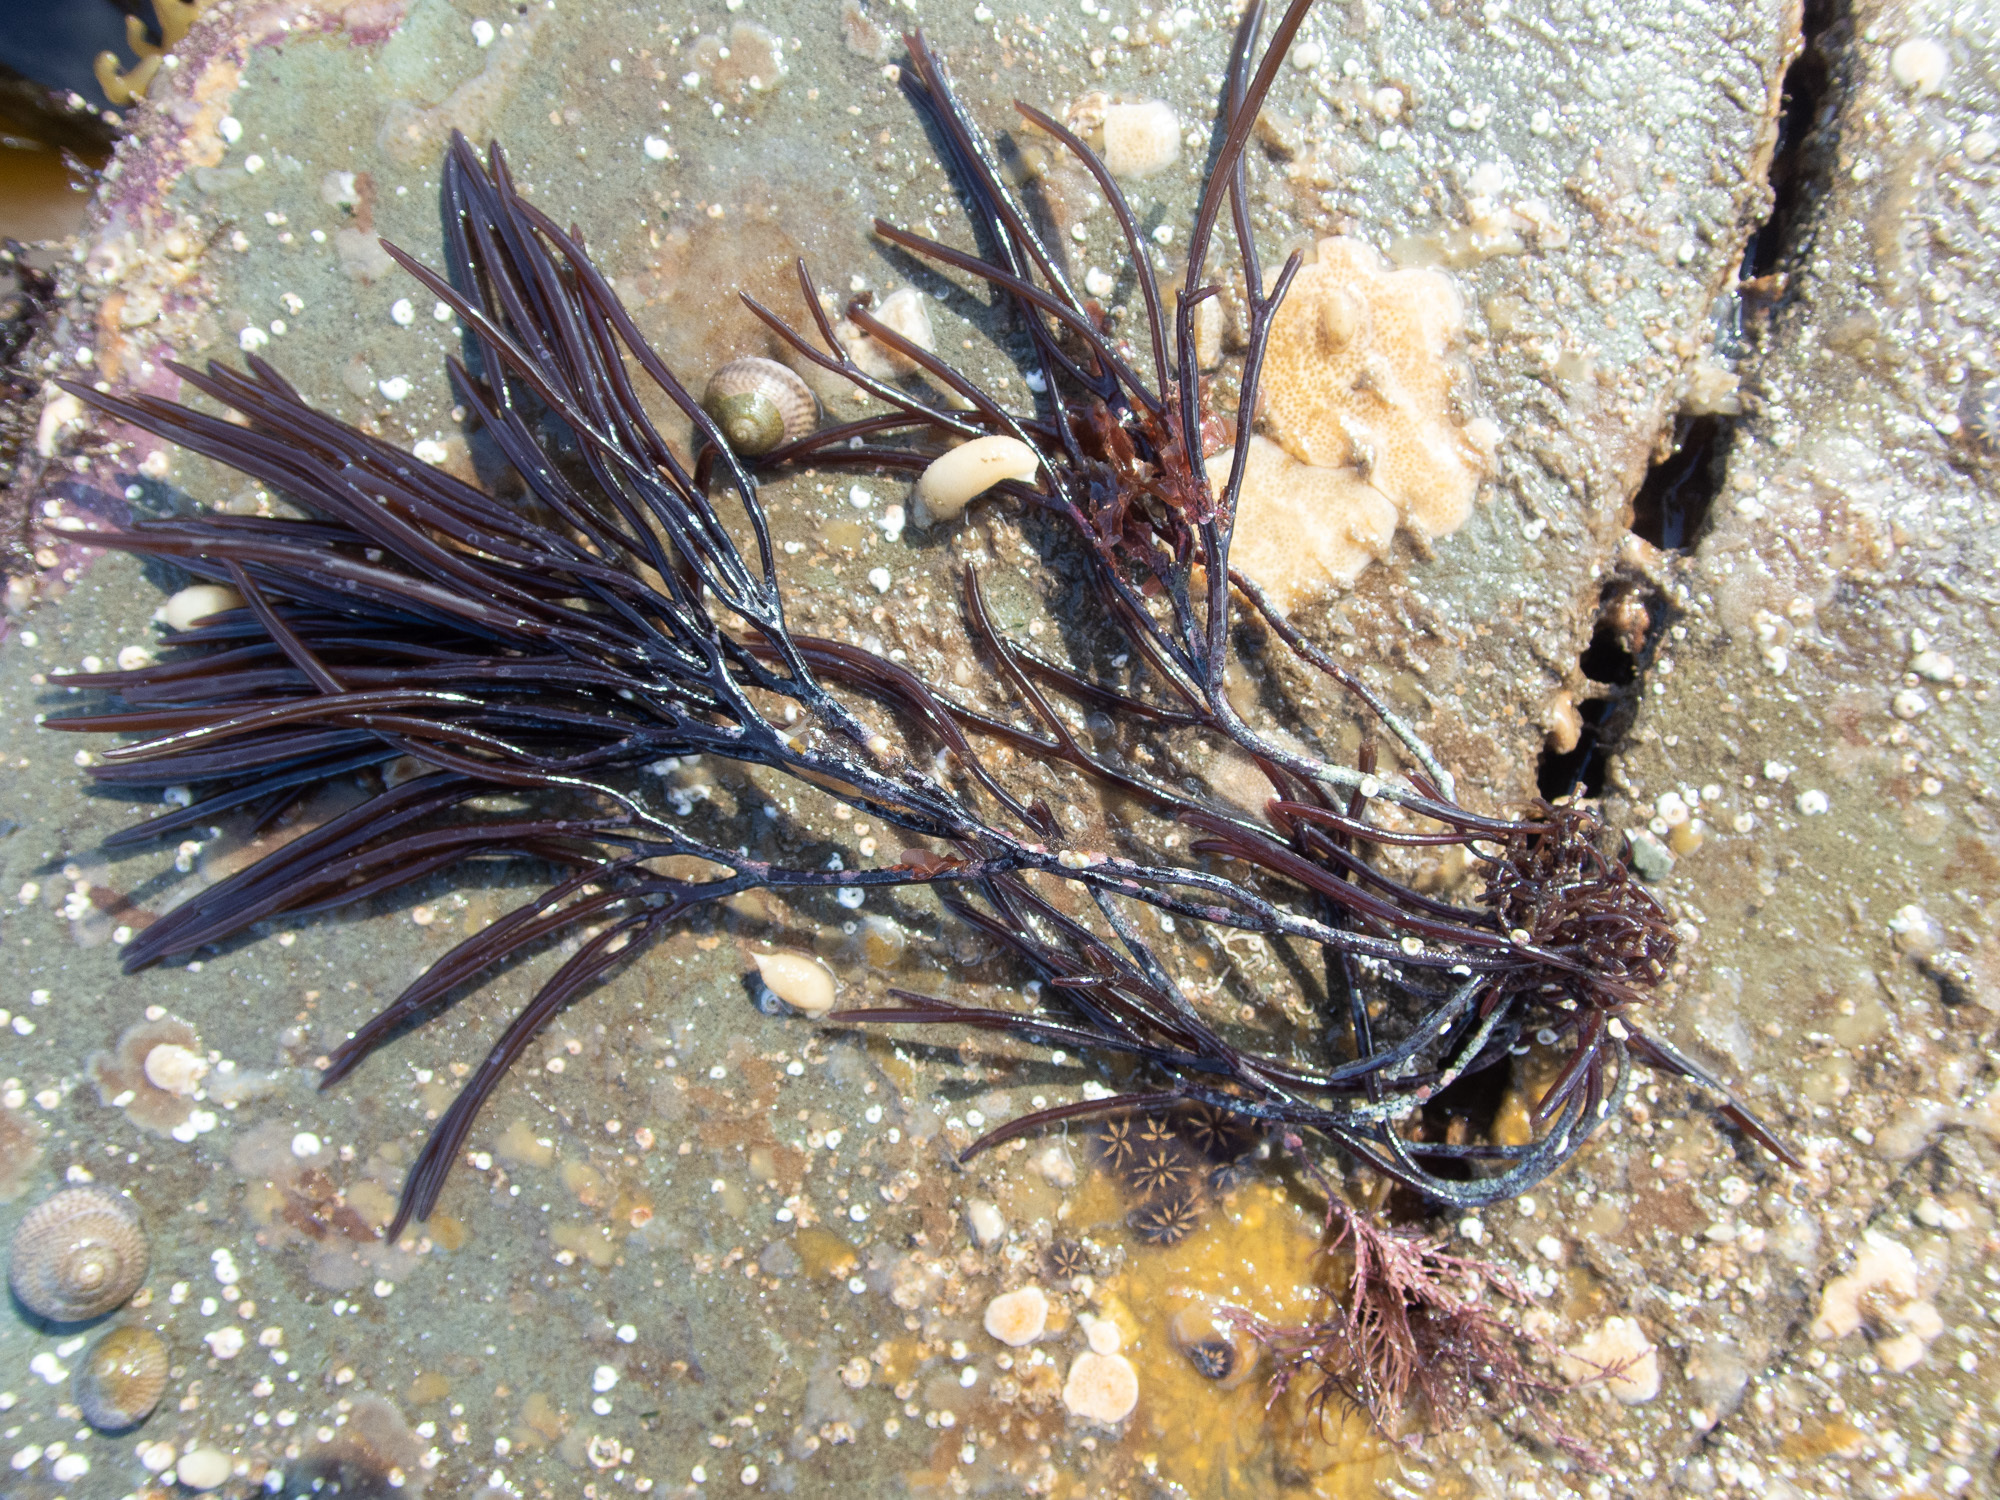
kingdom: Plantae
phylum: Rhodophyta
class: Florideophyceae
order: Gigartinales
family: Furcellariaceae
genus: Furcellaria
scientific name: Furcellaria lumbricalis
